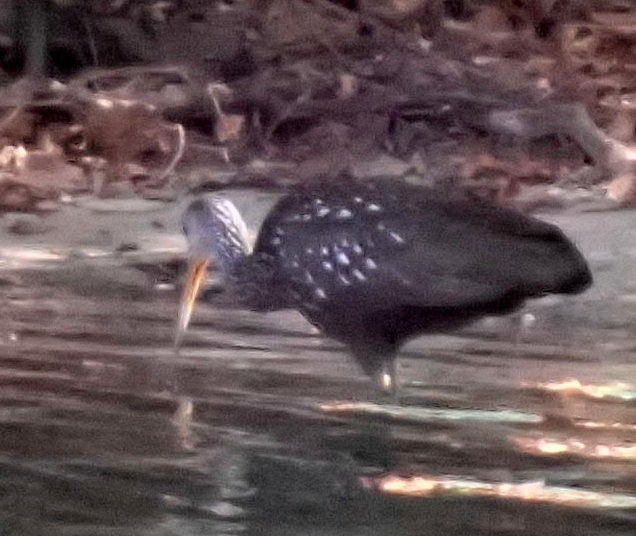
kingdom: Animalia
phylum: Chordata
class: Aves
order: Gruiformes
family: Aramidae
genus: Aramus
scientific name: Aramus guarauna
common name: Limpkin
